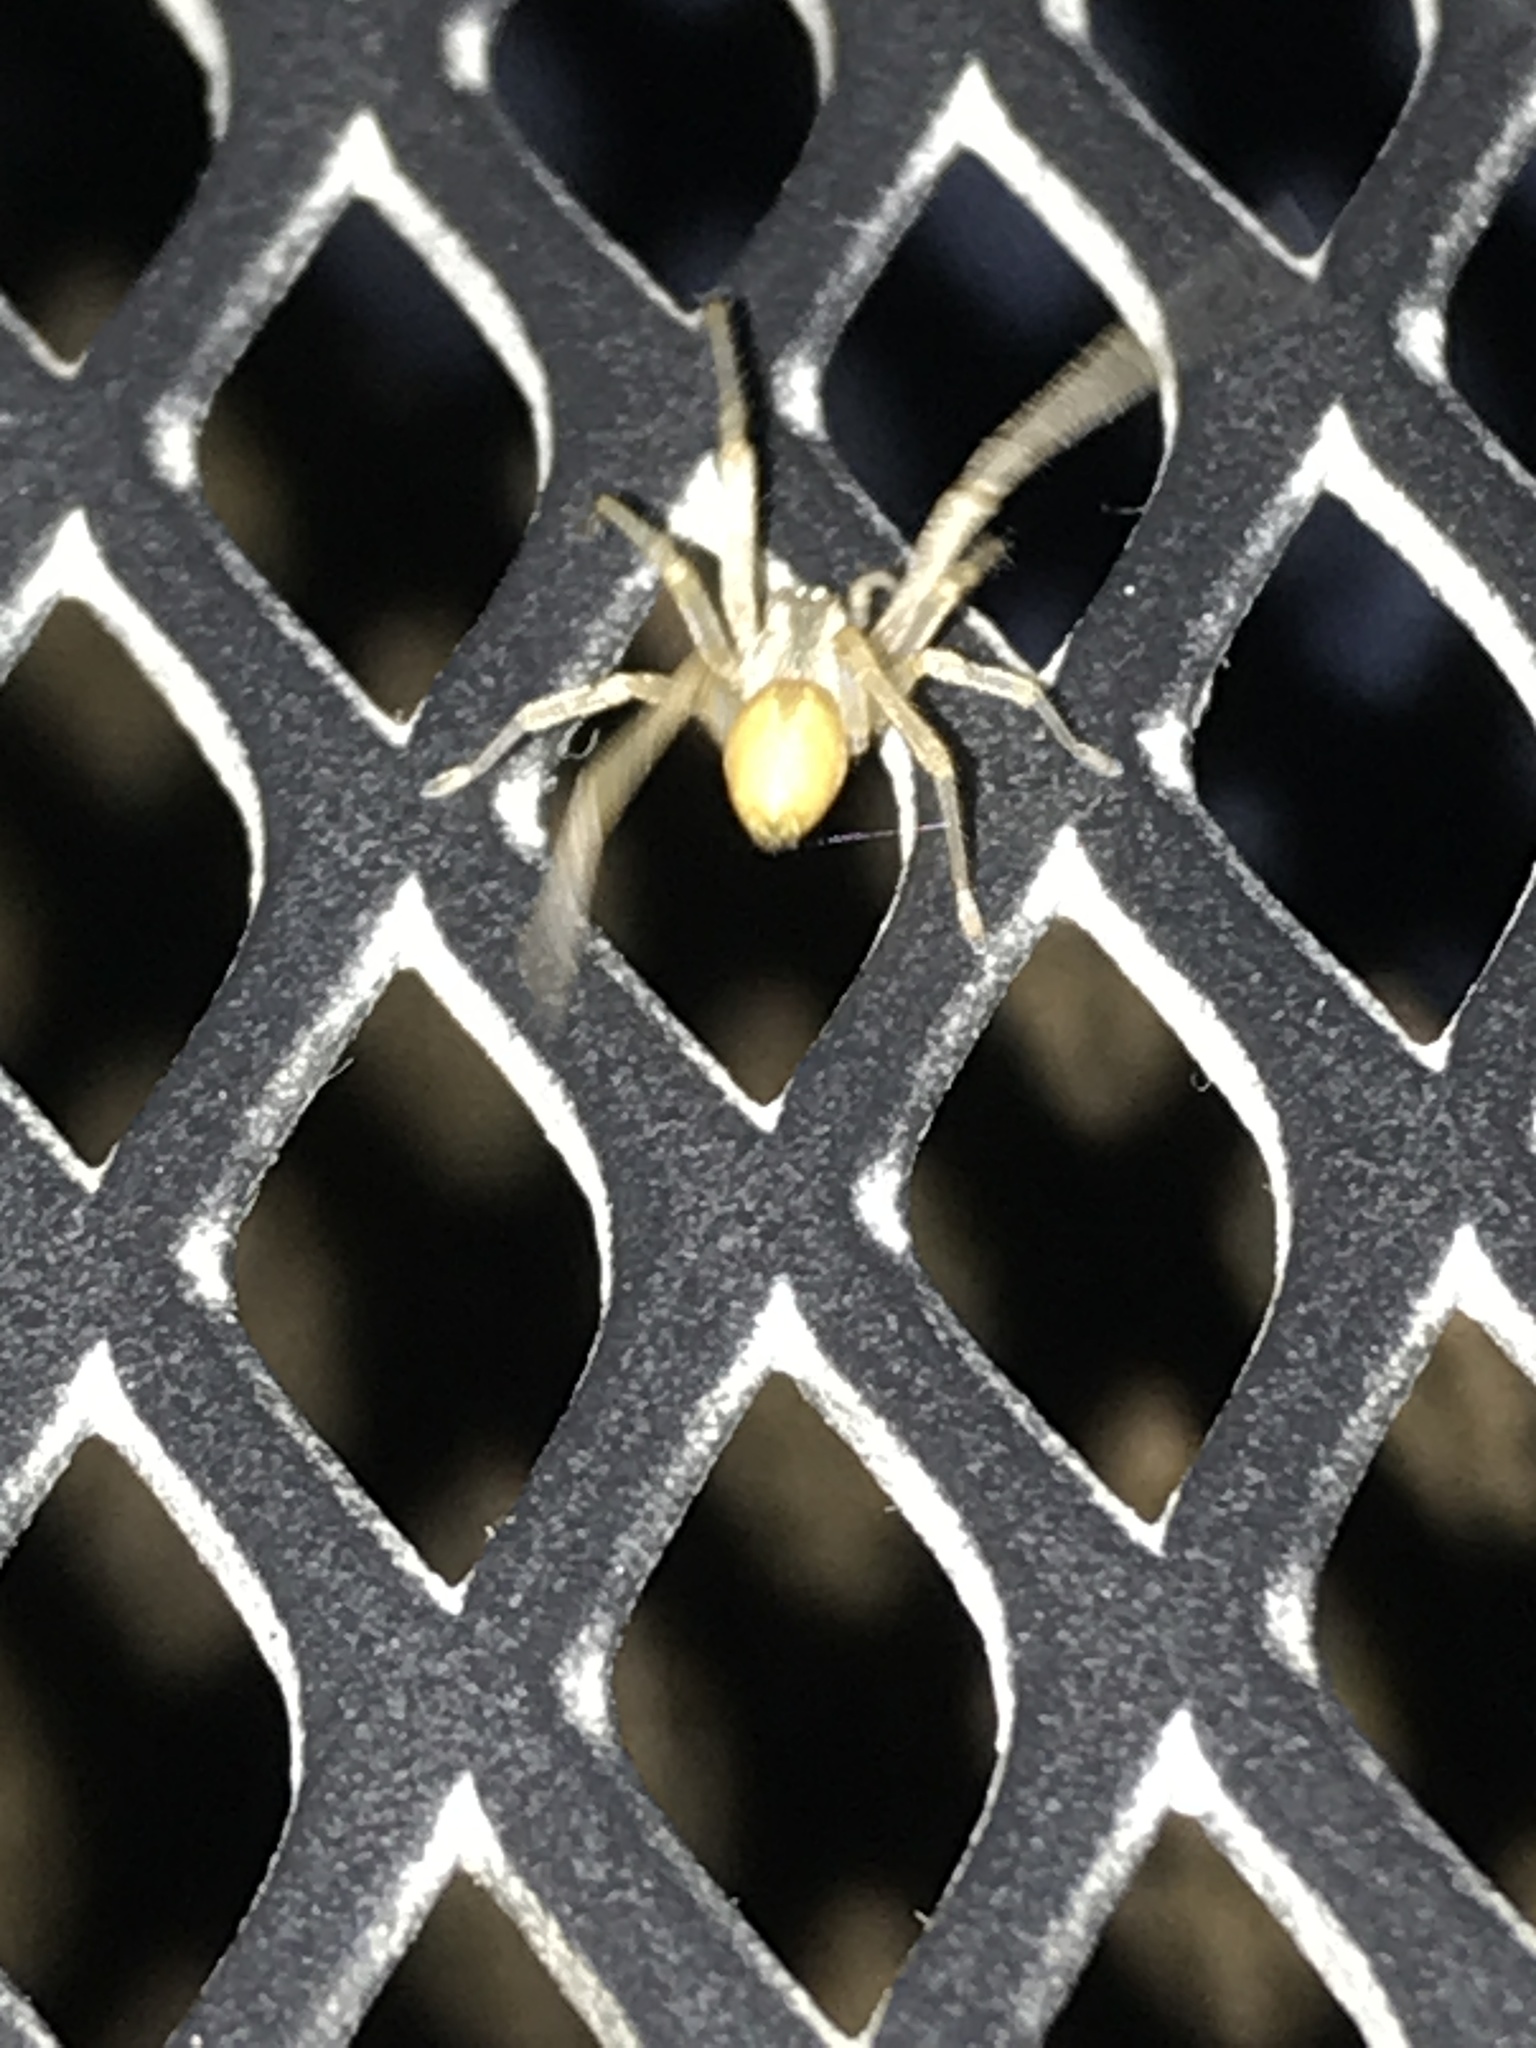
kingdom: Animalia
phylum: Arthropoda
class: Arachnida
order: Araneae
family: Cheiracanthiidae
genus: Cheiracanthium
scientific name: Cheiracanthium mildei
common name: Northern yellow sac spider
